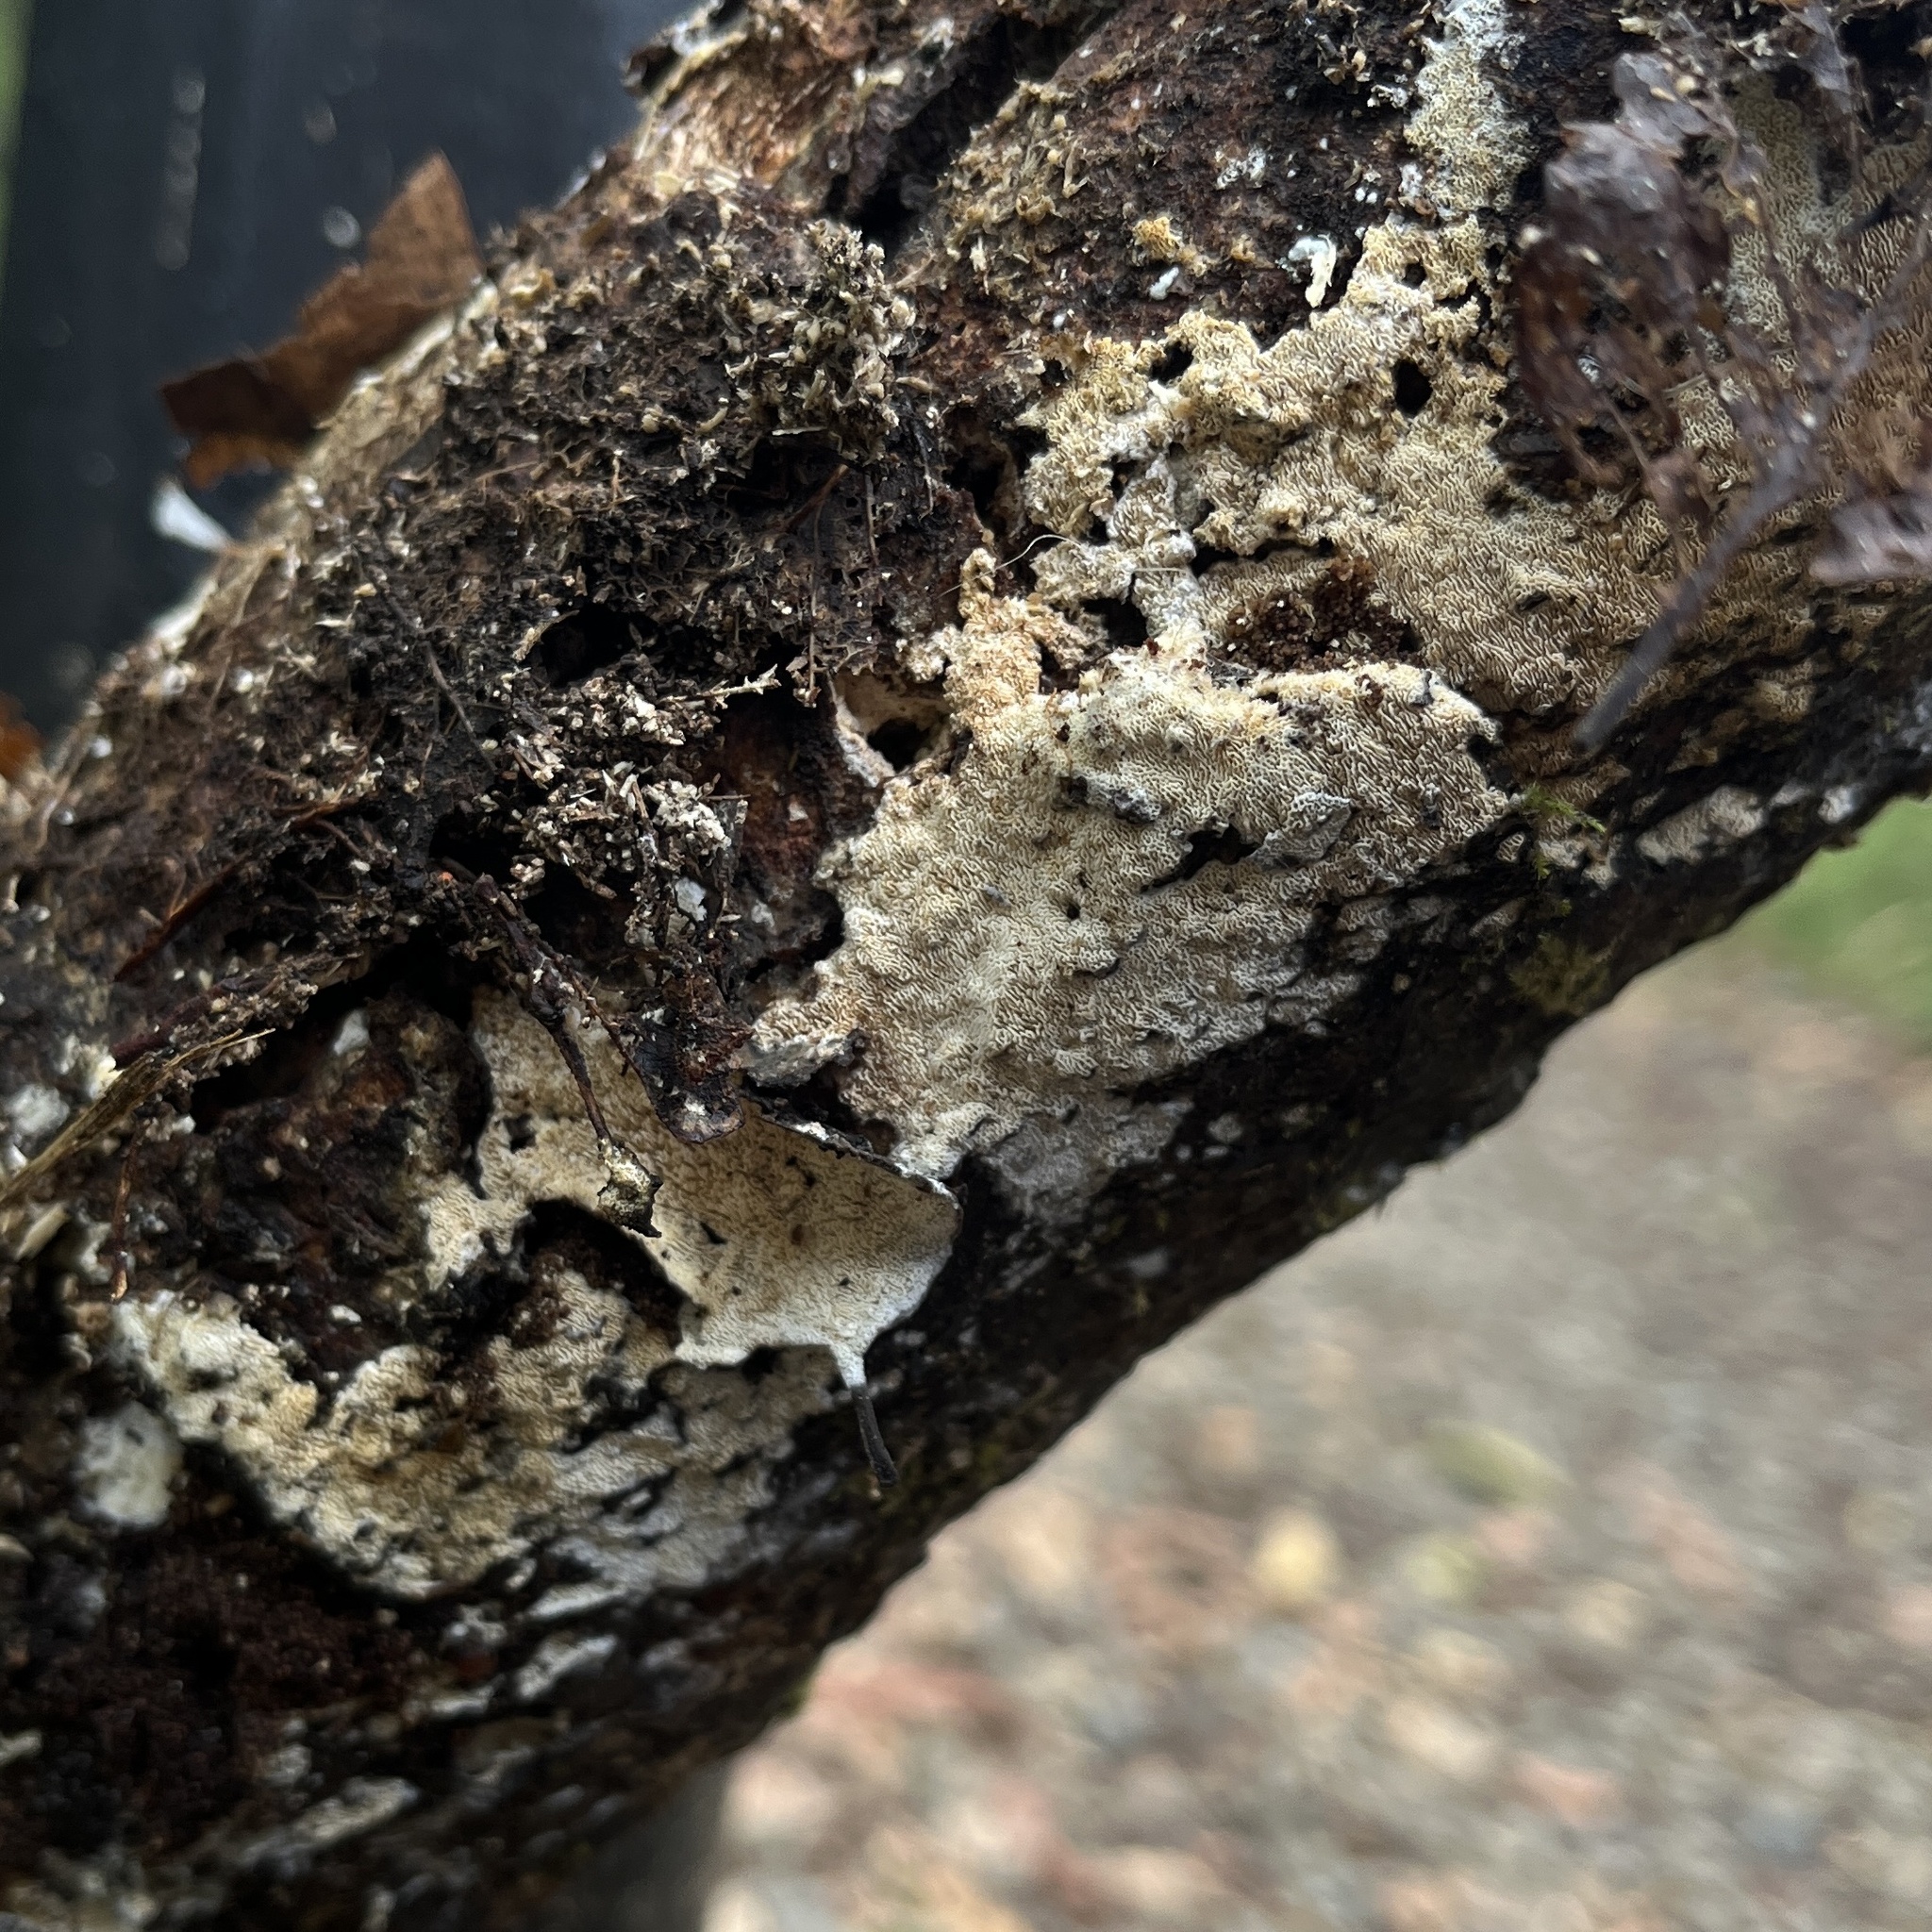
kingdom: Fungi
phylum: Basidiomycota
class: Agaricomycetes
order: Hymenochaetales
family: Schizoporaceae
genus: Schizopora
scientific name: Schizopora paradoxa
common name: Split porecrust
